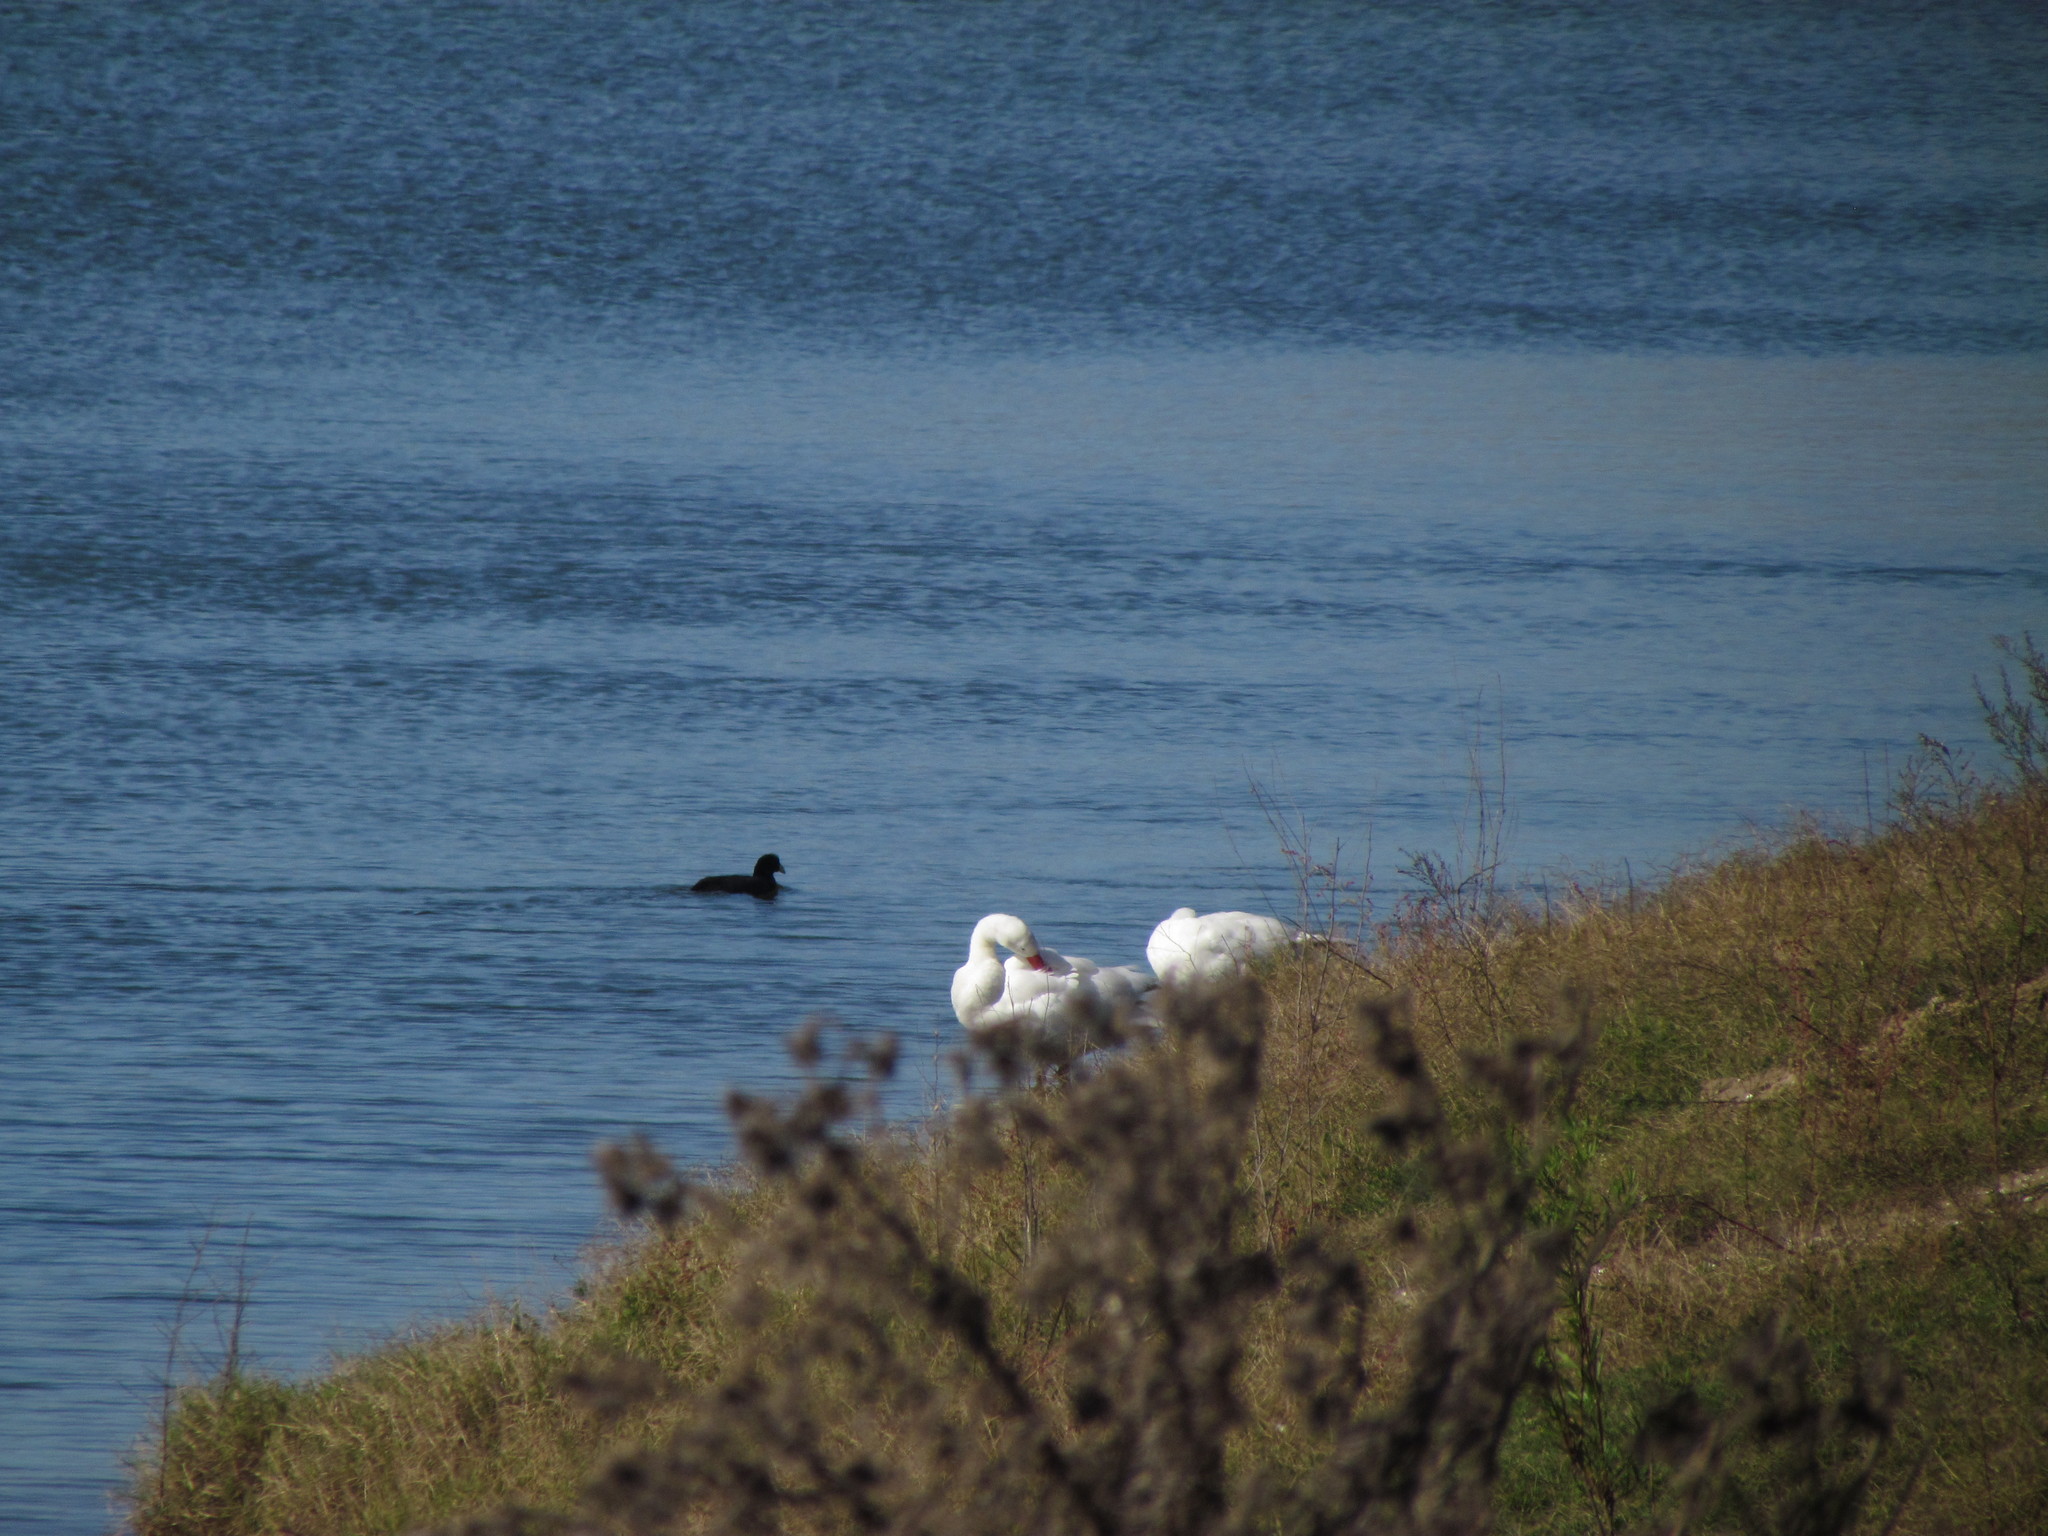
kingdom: Animalia
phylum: Chordata
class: Aves
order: Anseriformes
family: Anatidae
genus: Coscoroba
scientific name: Coscoroba coscoroba
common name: Coscoroba swan
